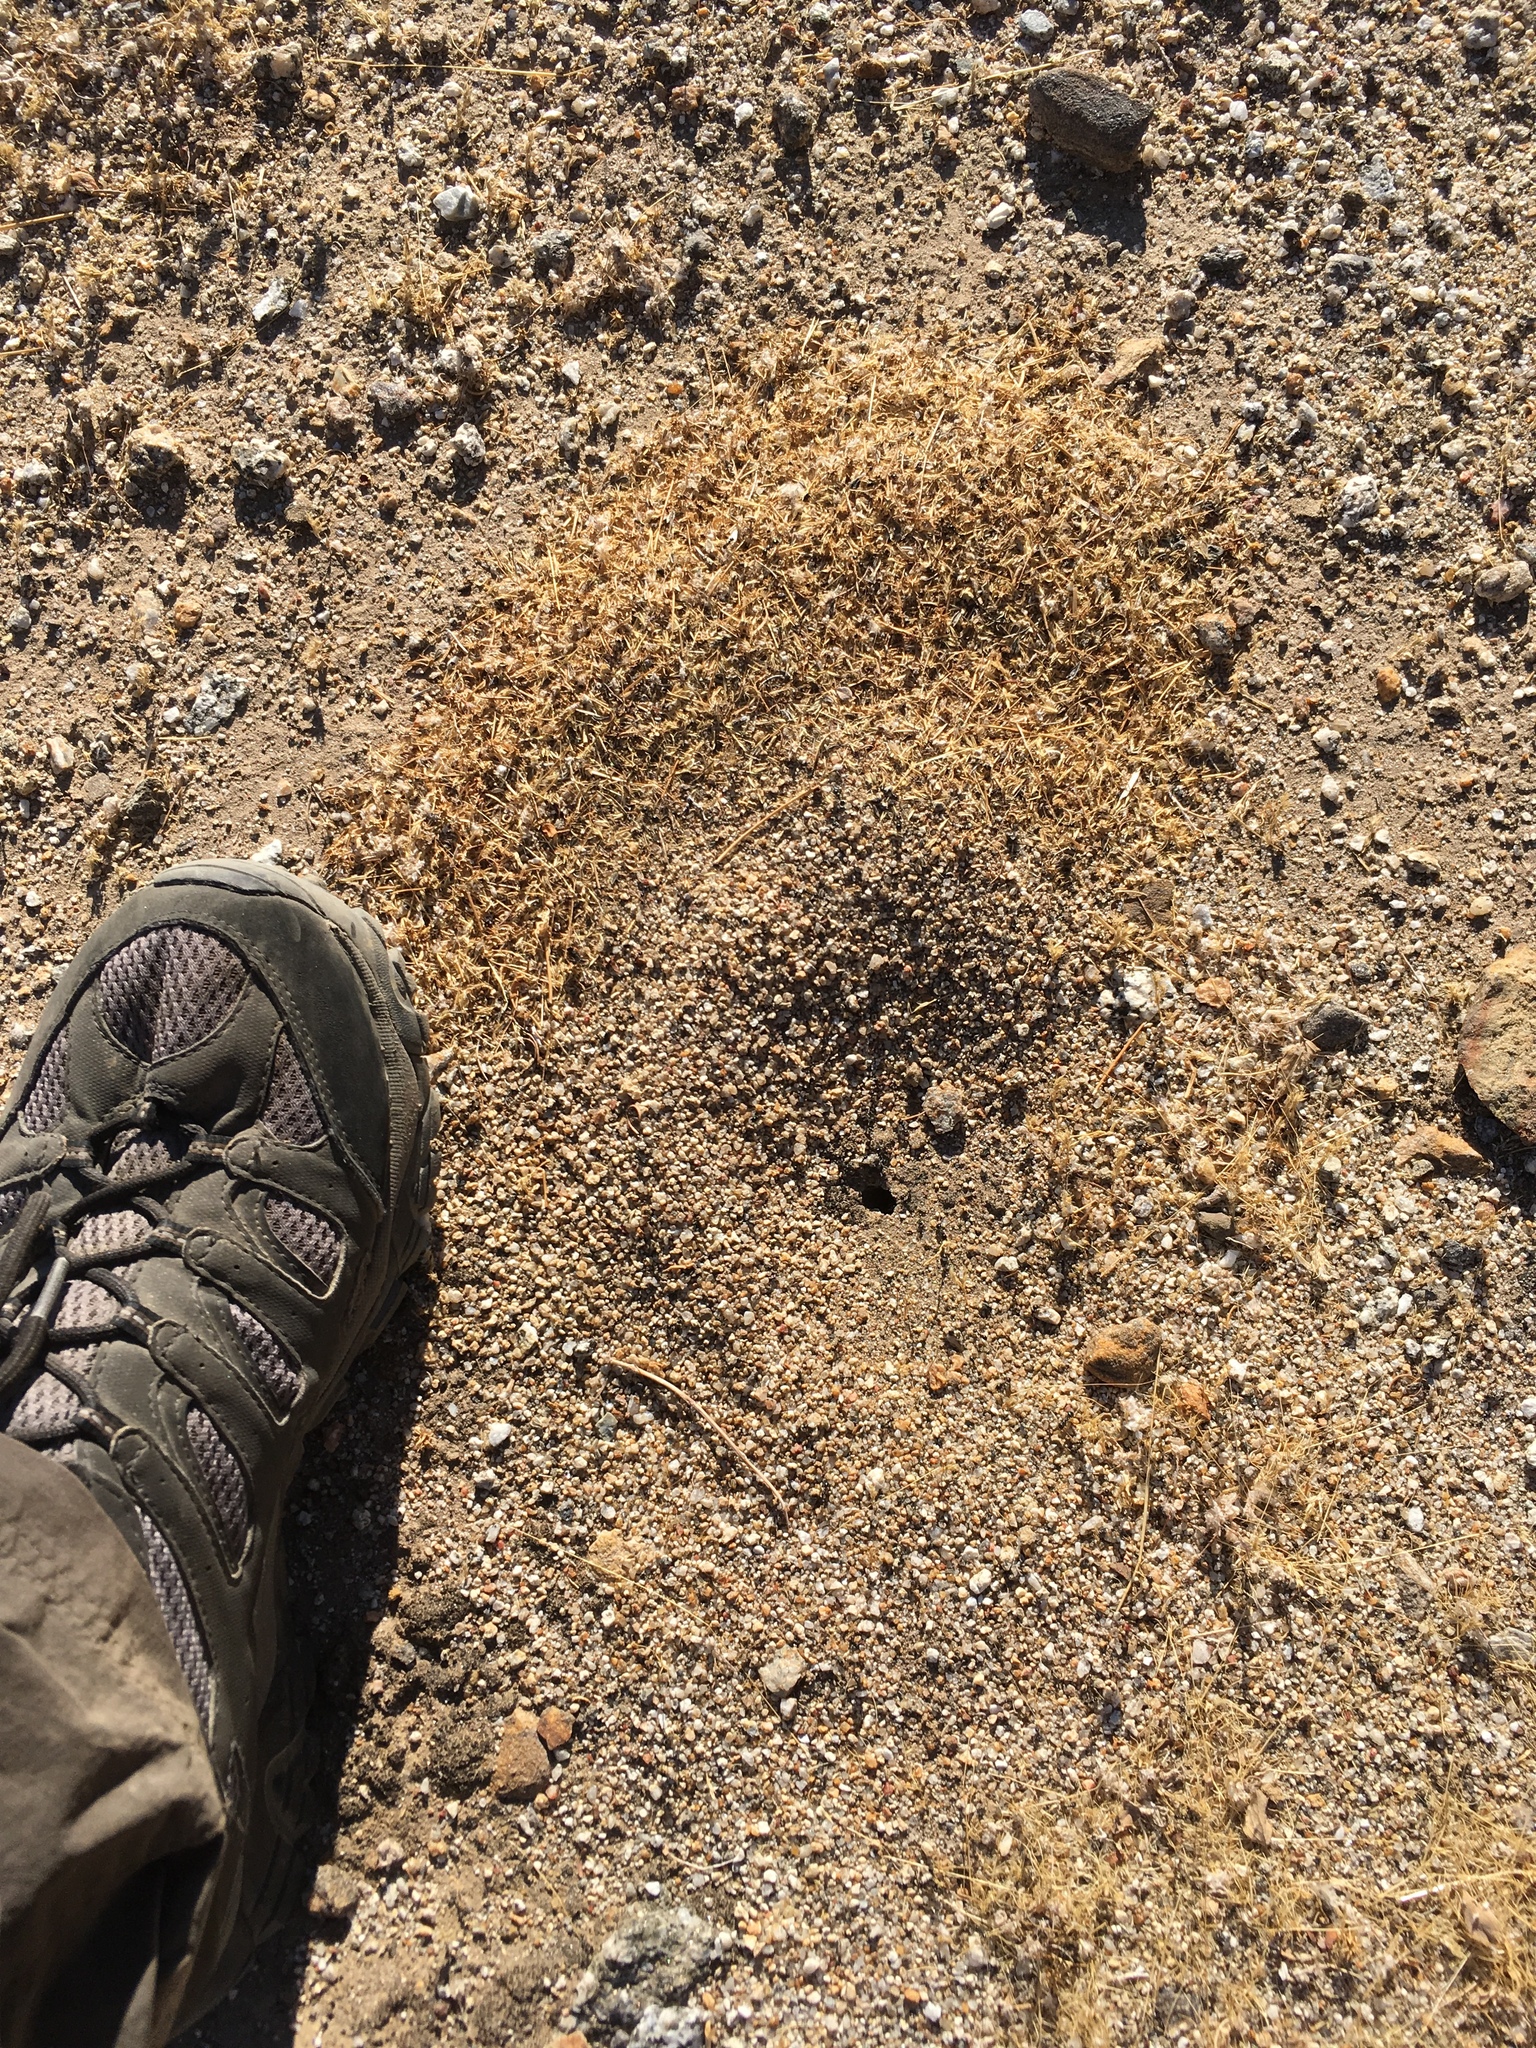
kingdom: Animalia
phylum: Arthropoda
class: Insecta
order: Hymenoptera
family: Formicidae
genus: Messor
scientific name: Messor pergandei
